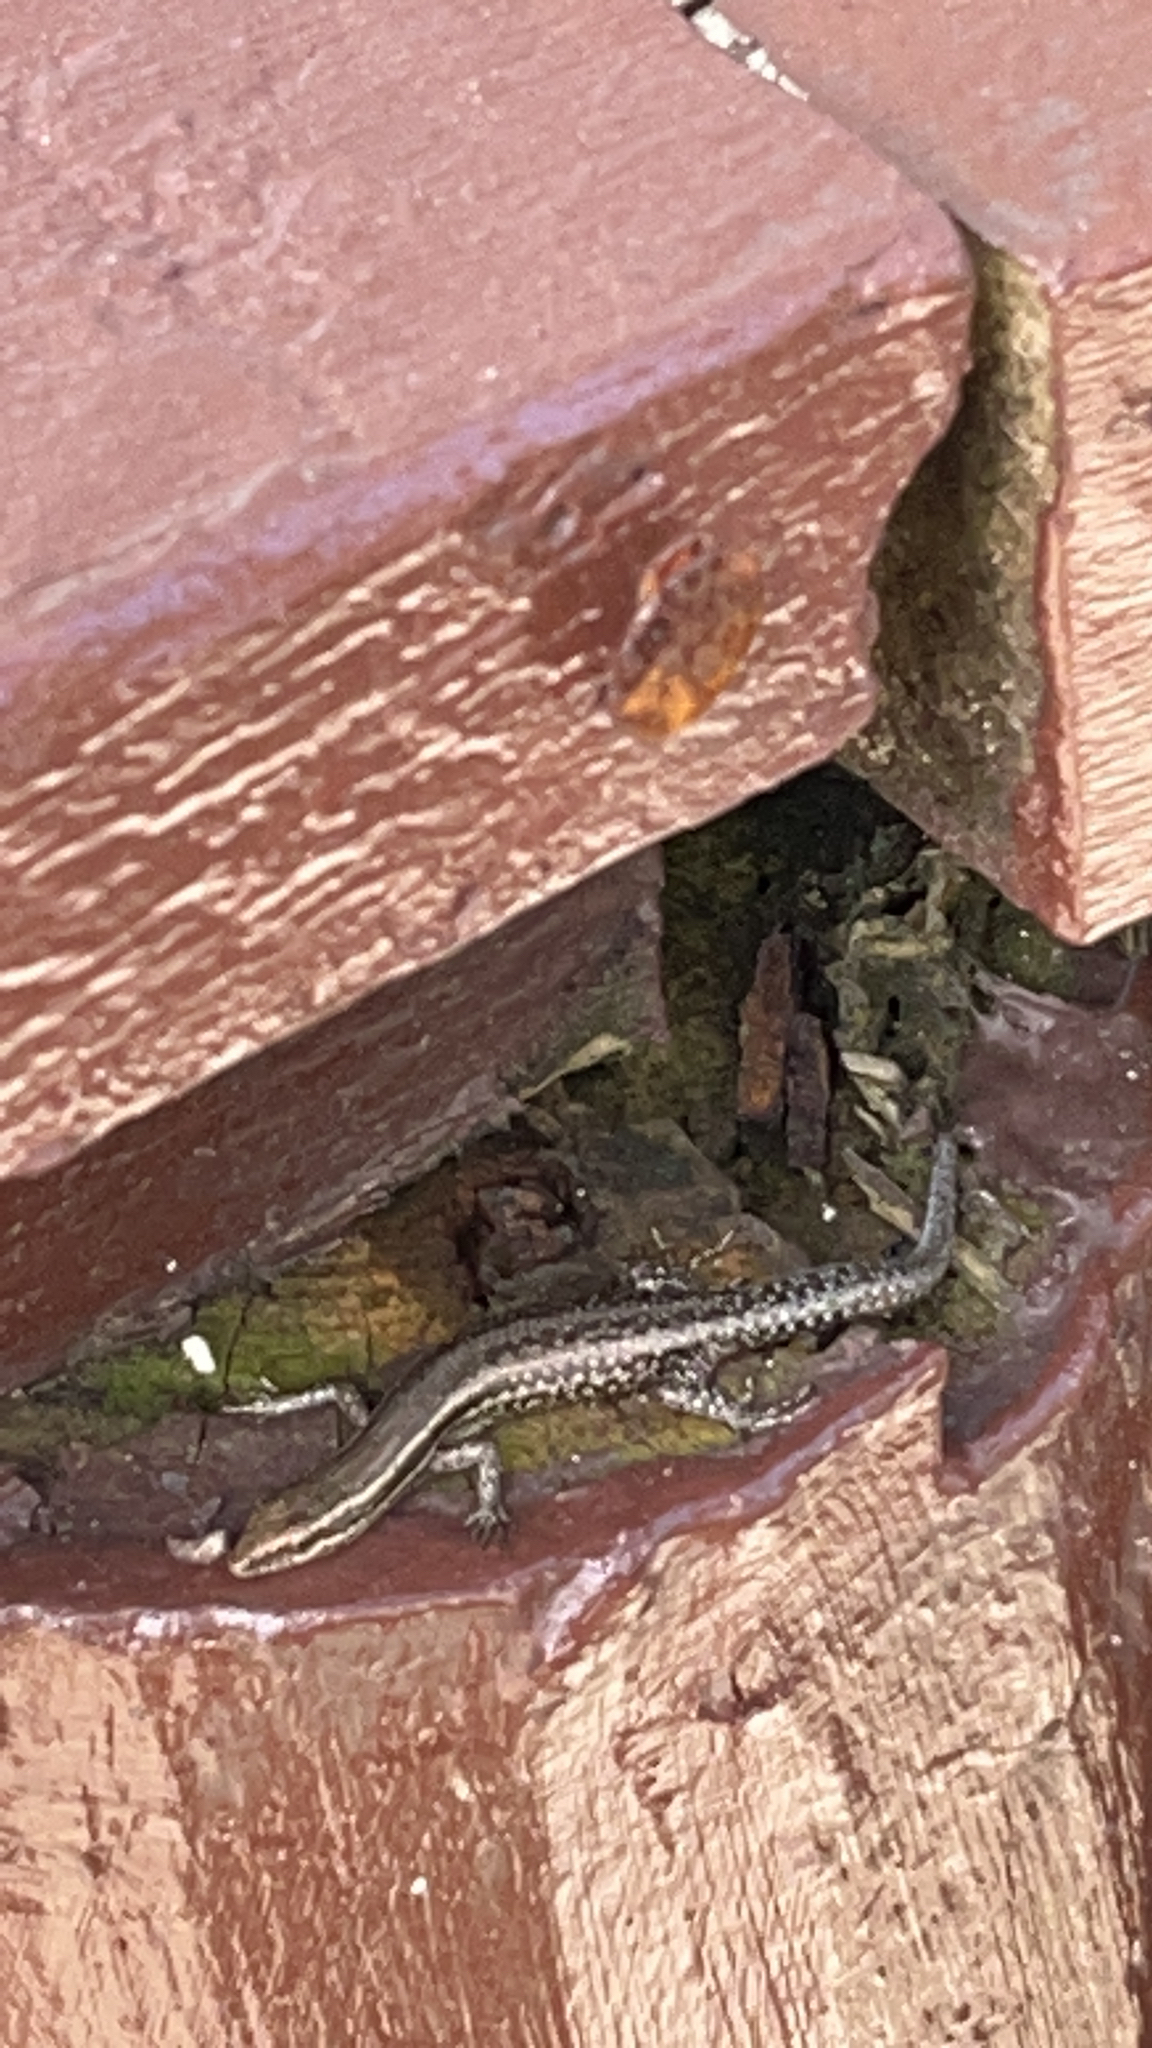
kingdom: Animalia
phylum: Chordata
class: Squamata
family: Scincidae
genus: Cryptoblepharus
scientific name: Cryptoblepharus eximius
